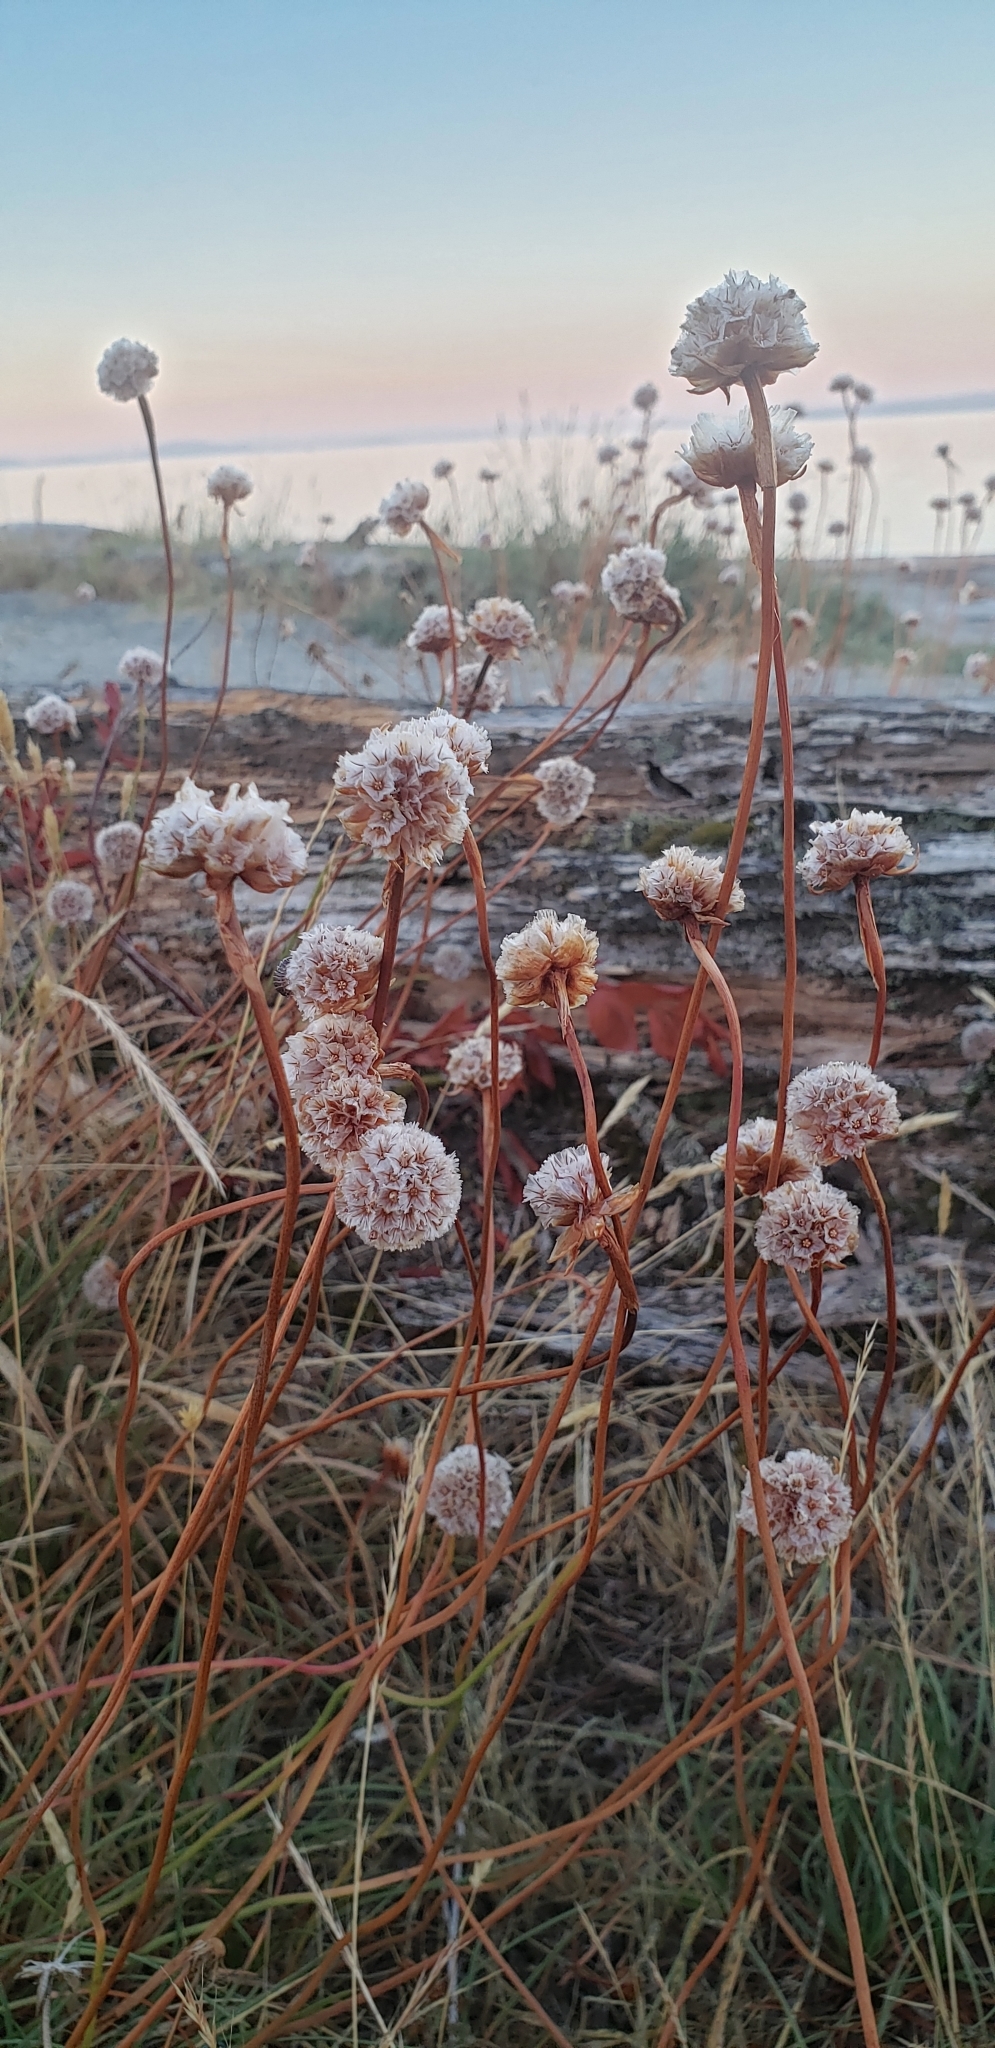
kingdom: Plantae
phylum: Tracheophyta
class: Magnoliopsida
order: Caryophyllales
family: Plumbaginaceae
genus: Armeria
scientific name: Armeria maritima
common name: Thrift
